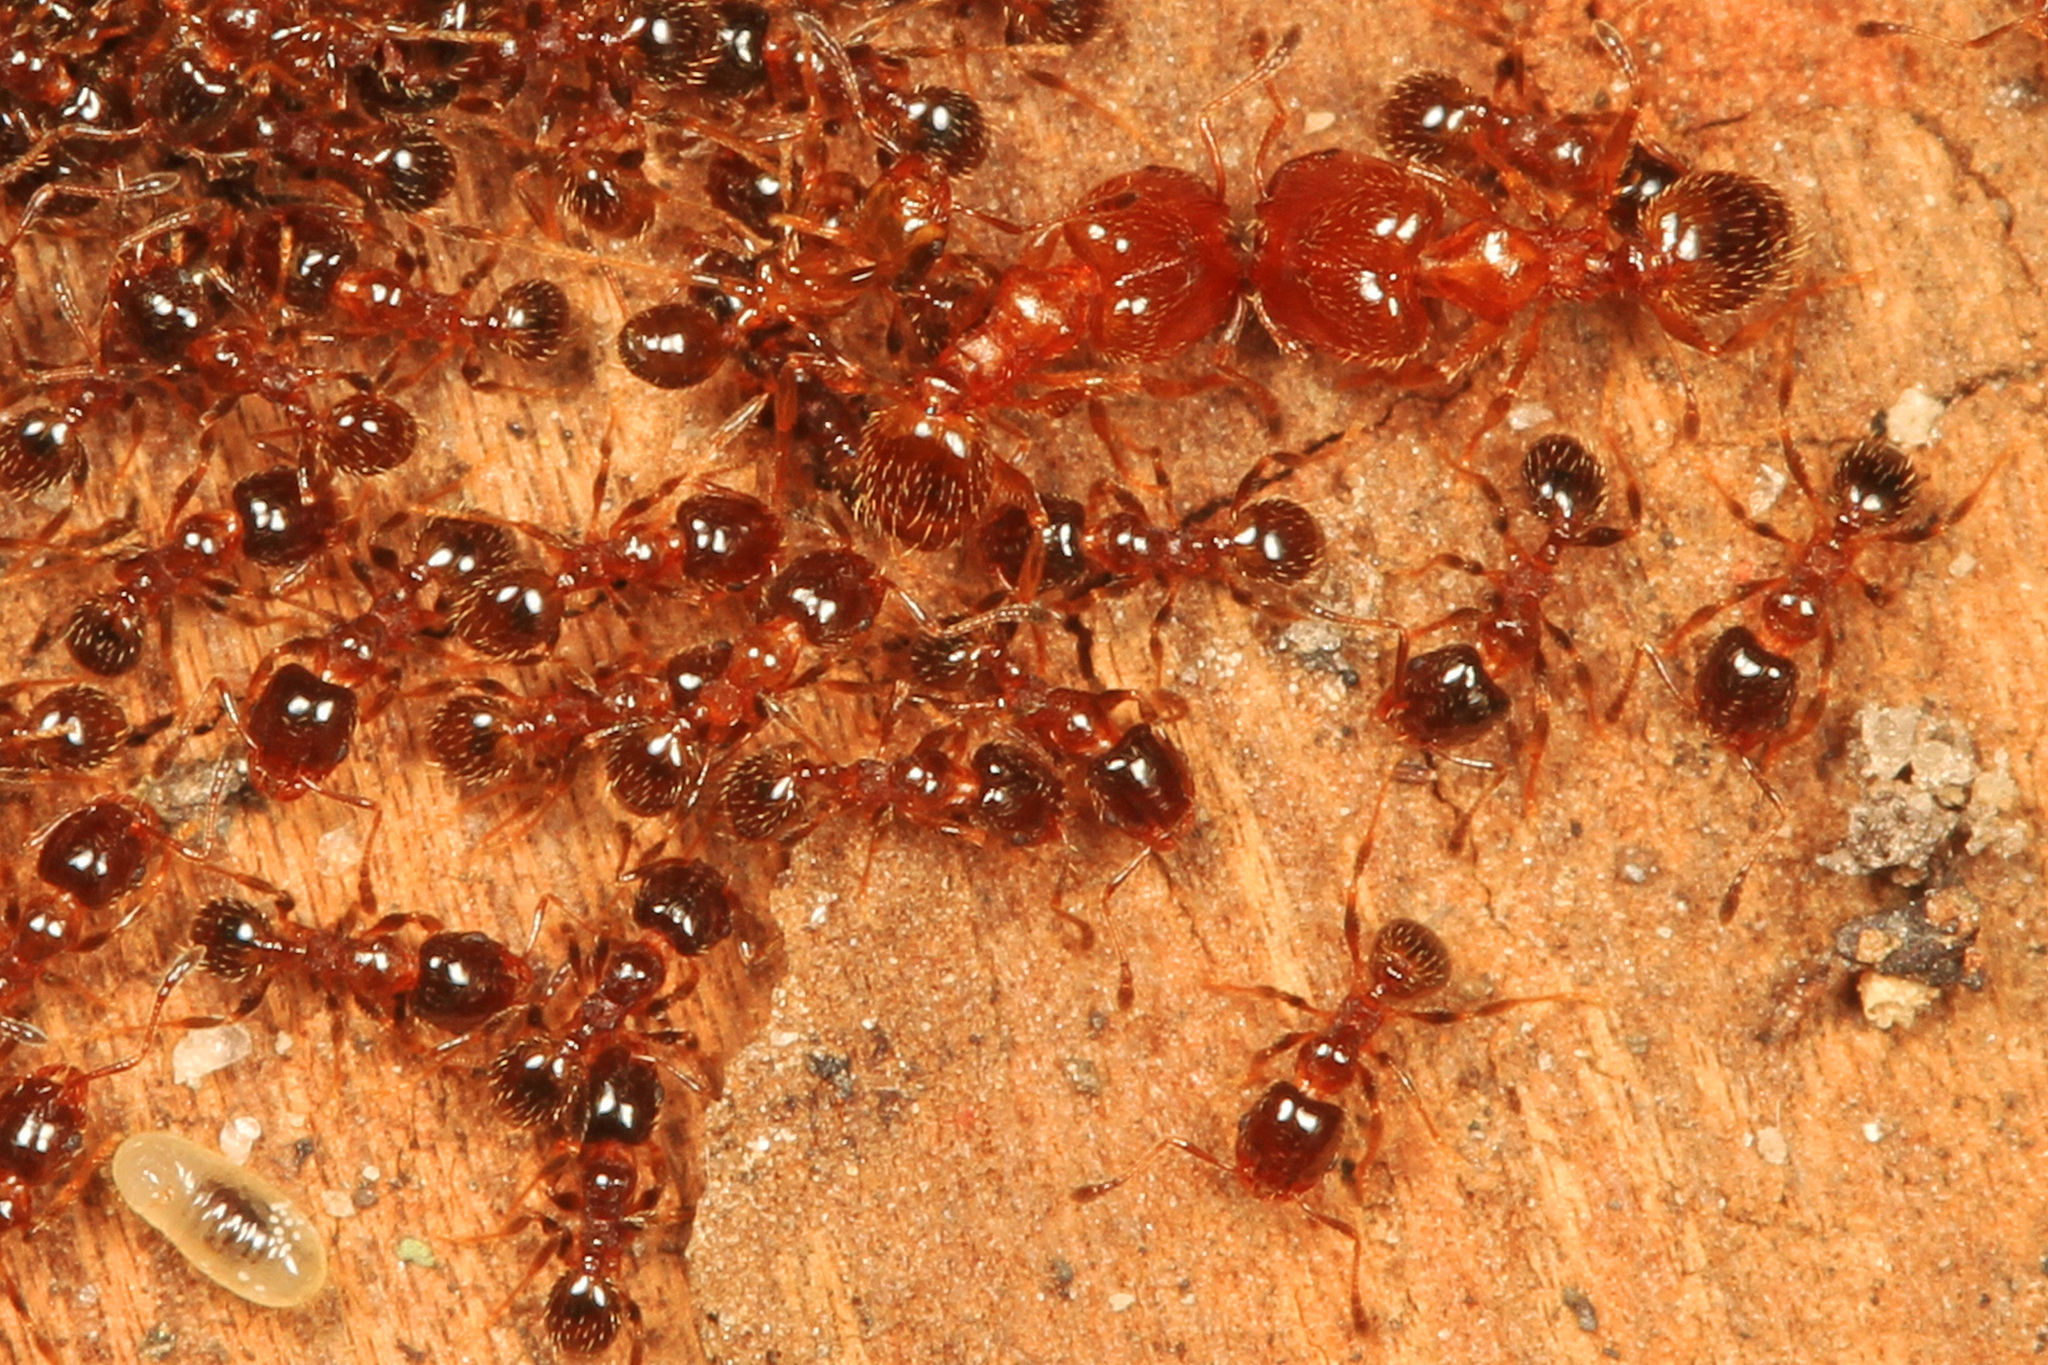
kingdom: Animalia
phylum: Arthropoda
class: Insecta
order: Hymenoptera
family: Formicidae
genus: Pheidole
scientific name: Pheidole bicarinata
